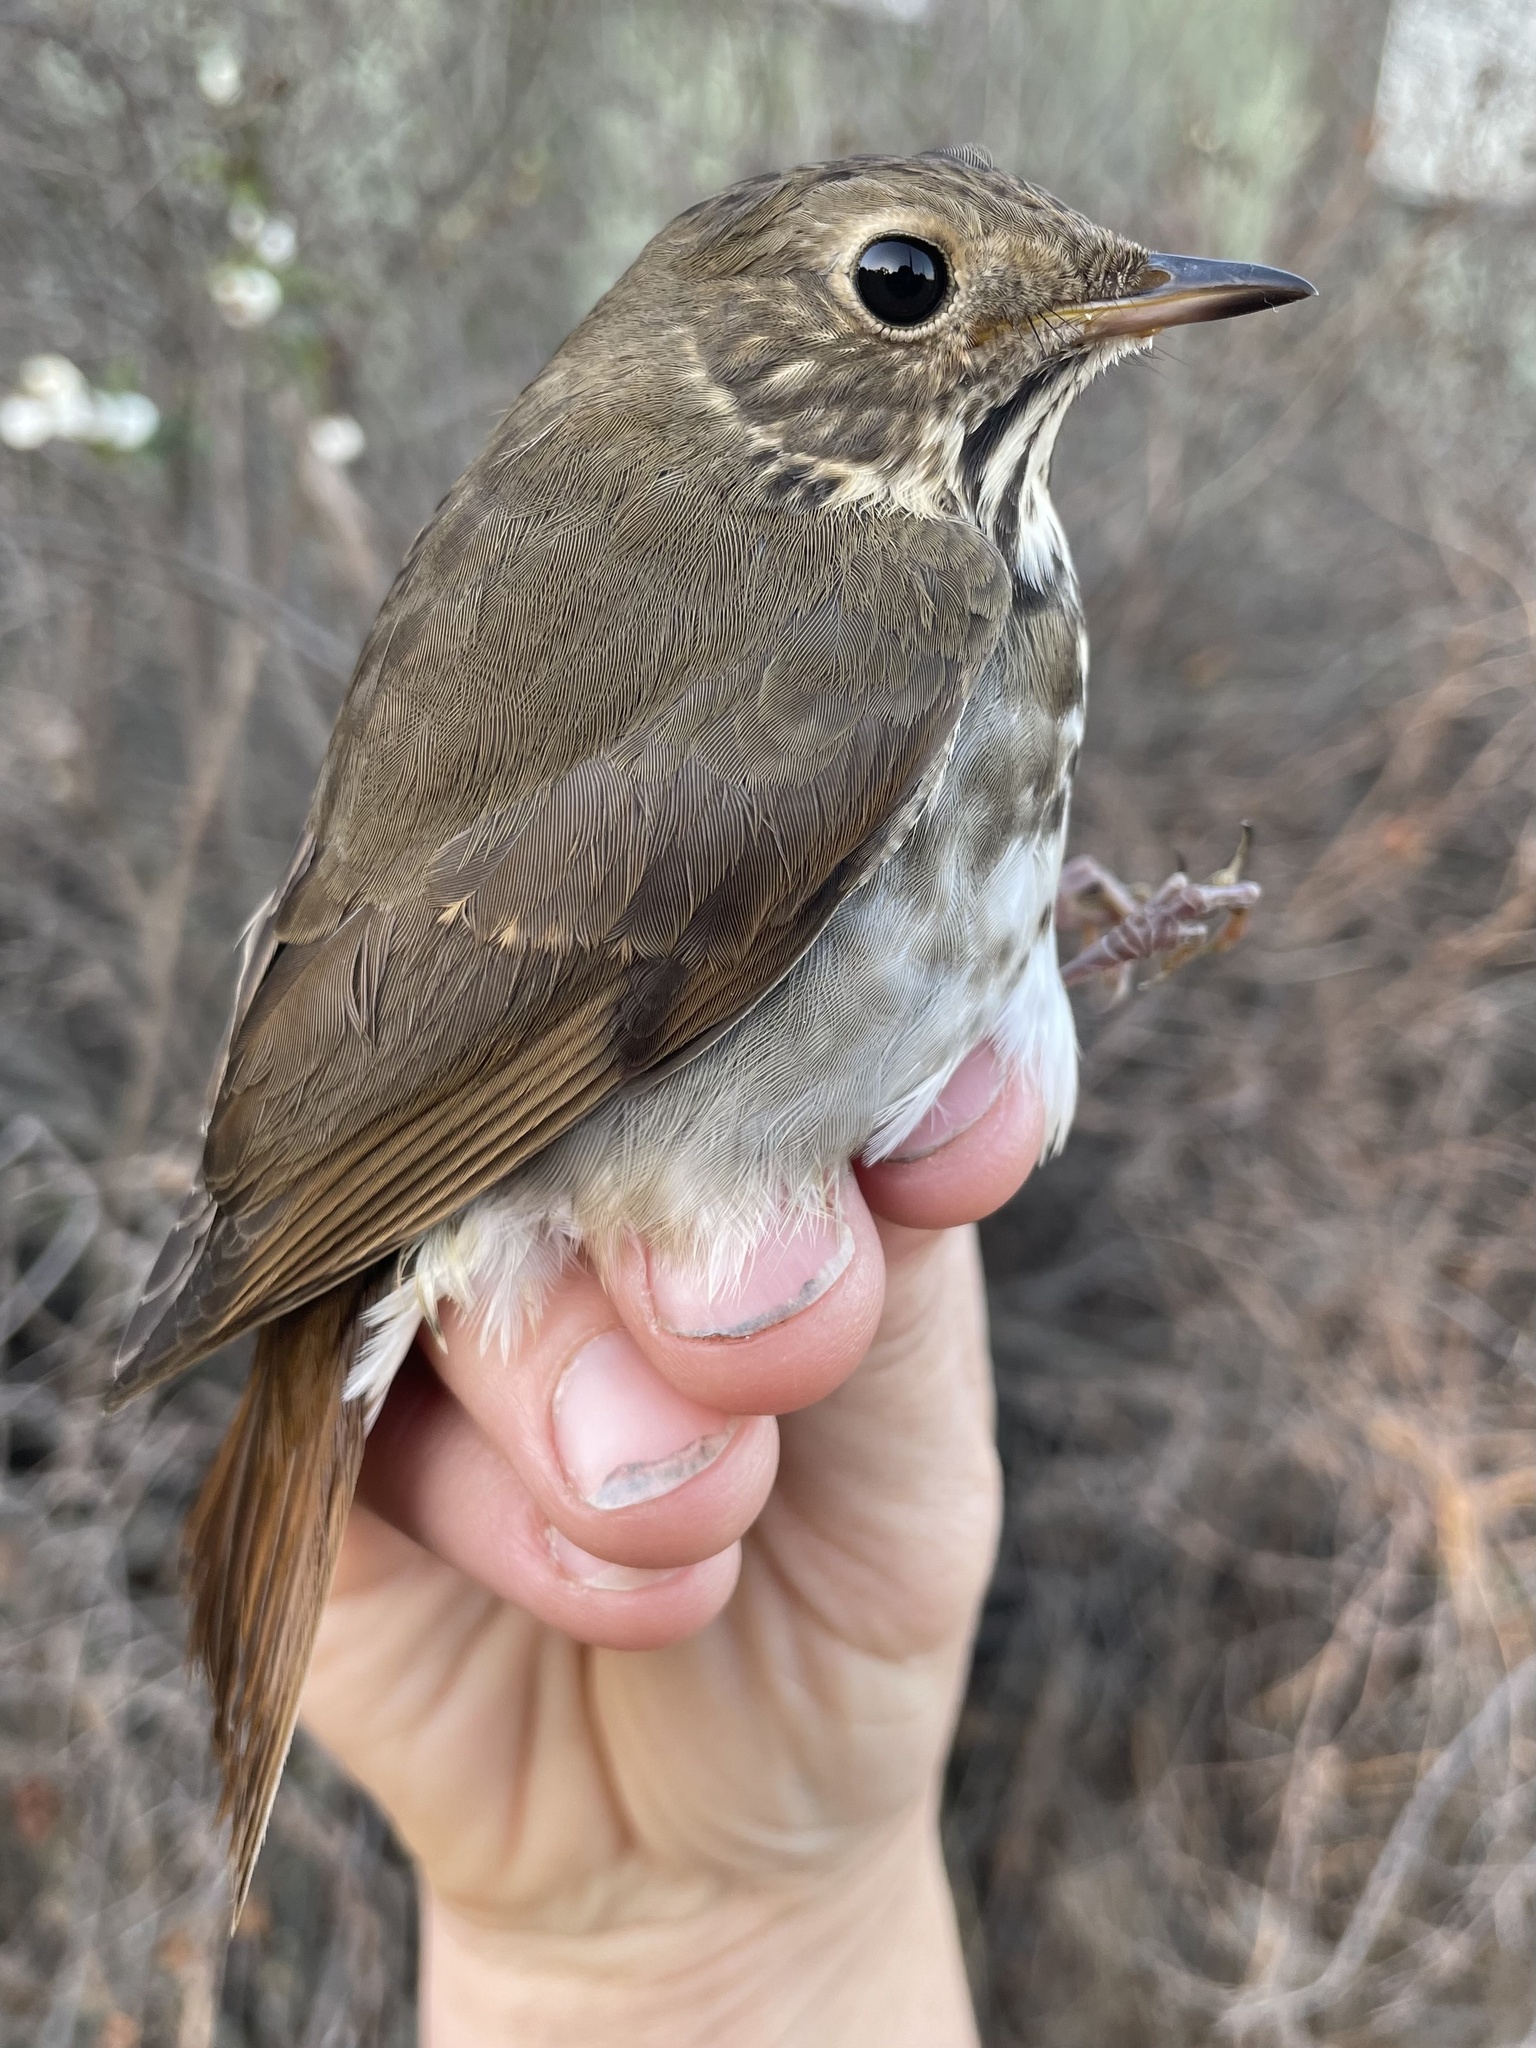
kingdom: Animalia
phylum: Chordata
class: Aves
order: Passeriformes
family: Turdidae
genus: Catharus
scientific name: Catharus guttatus
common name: Hermit thrush
